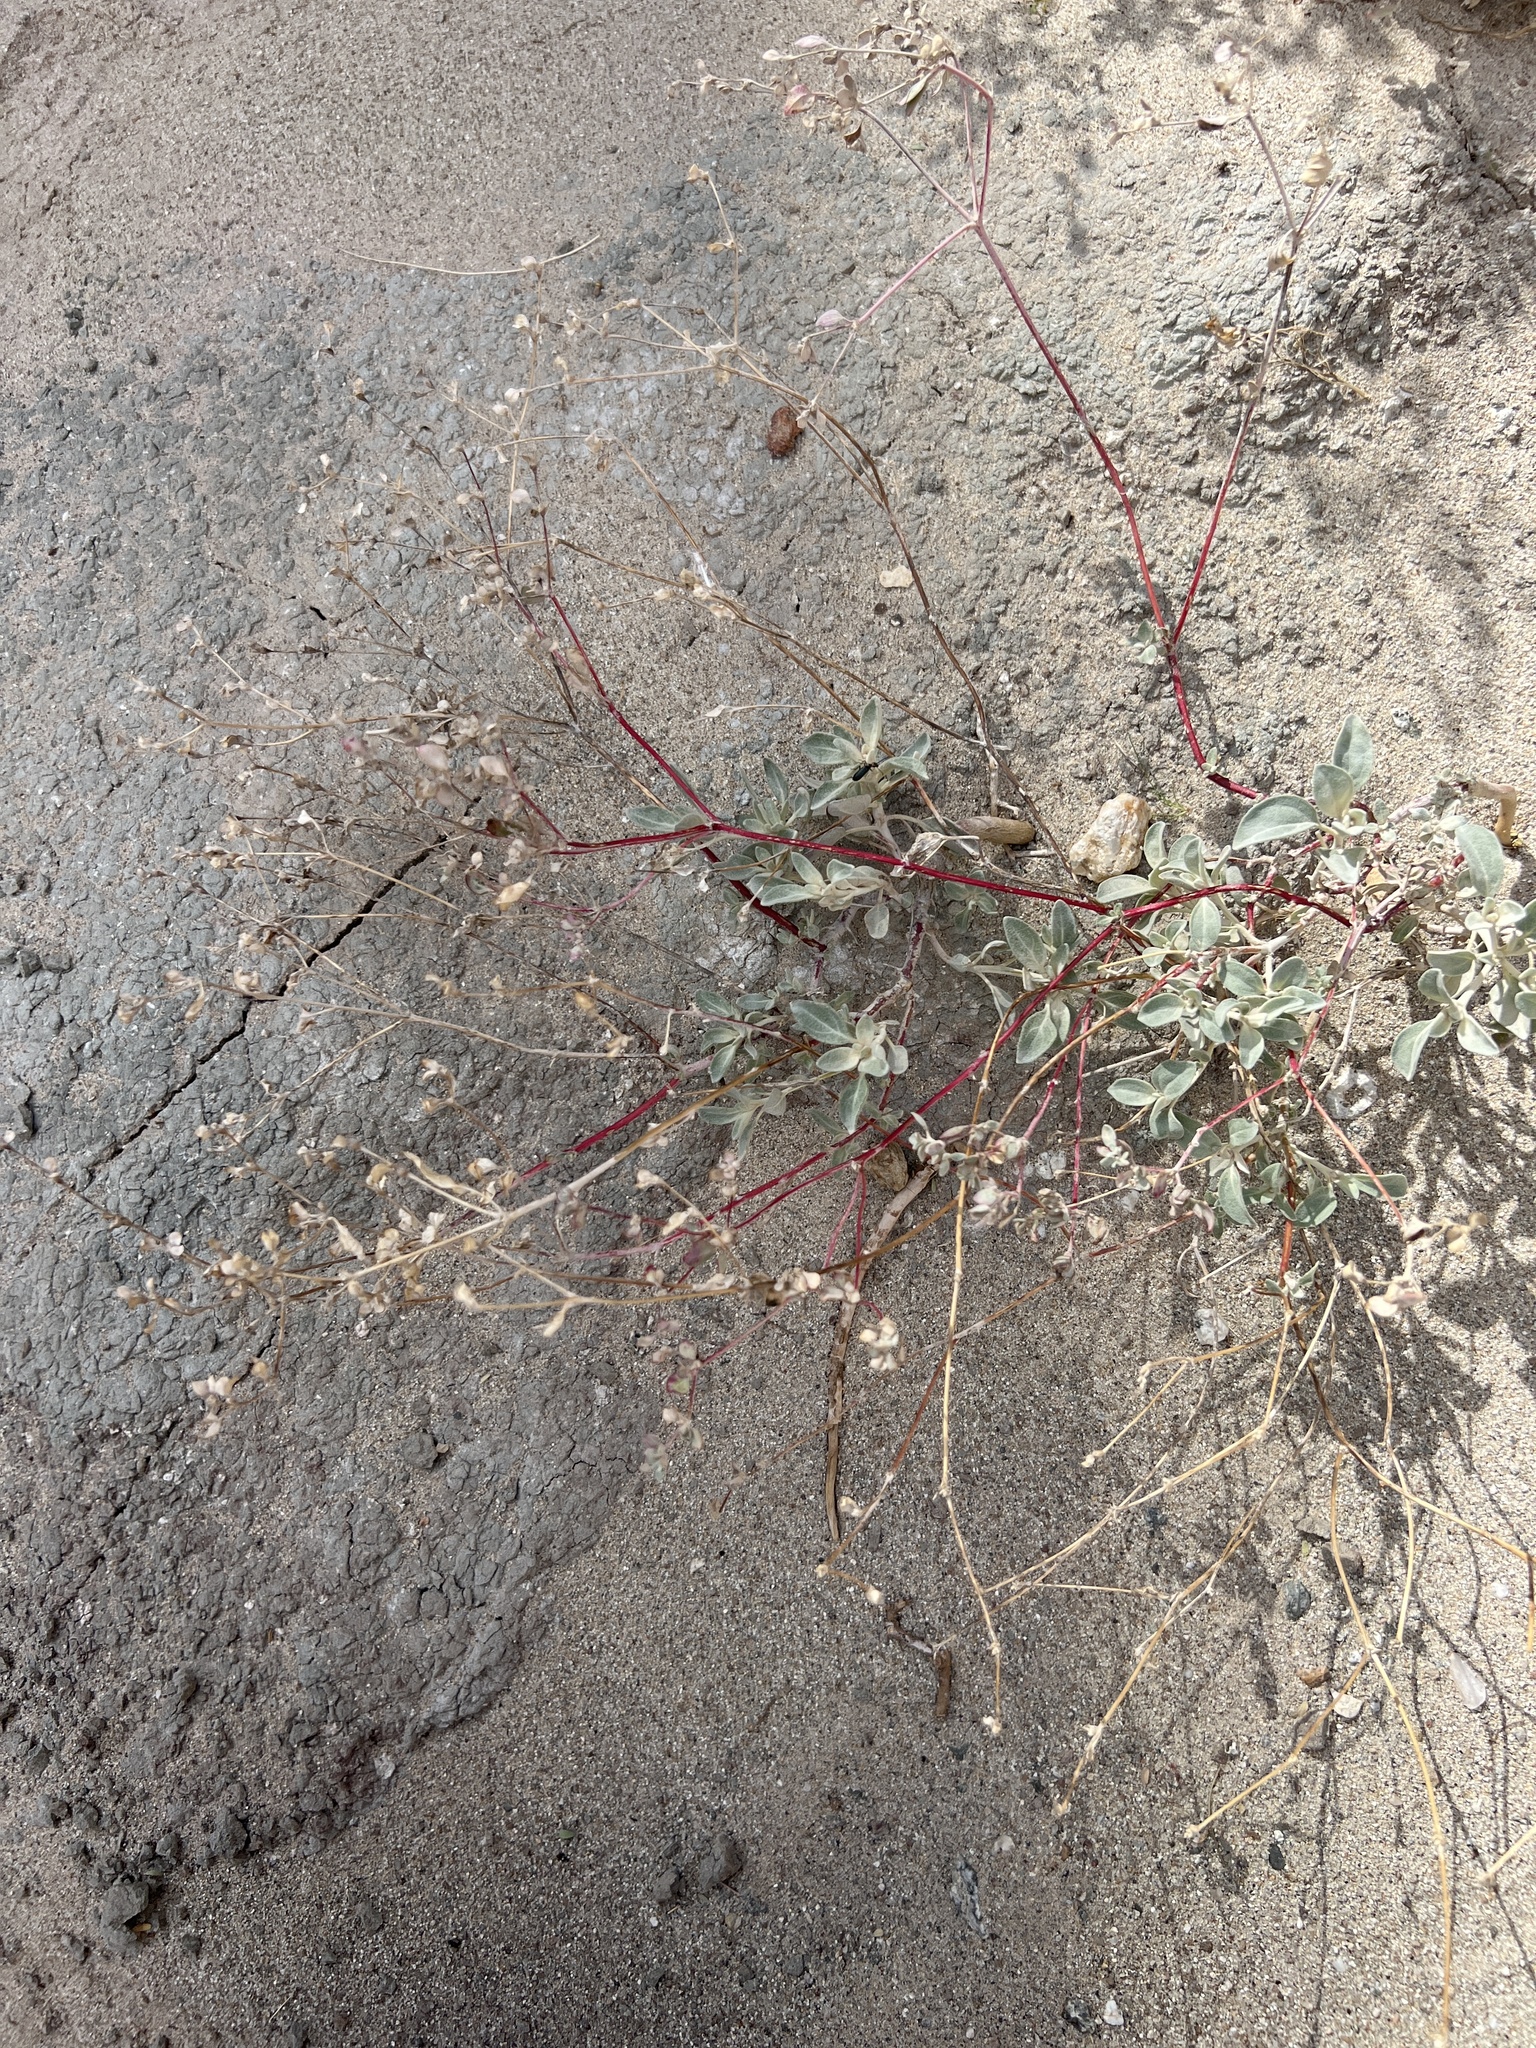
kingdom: Plantae
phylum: Tracheophyta
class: Magnoliopsida
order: Caryophyllales
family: Amaranthaceae
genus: Tidestromia
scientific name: Tidestromia suffruticosa
